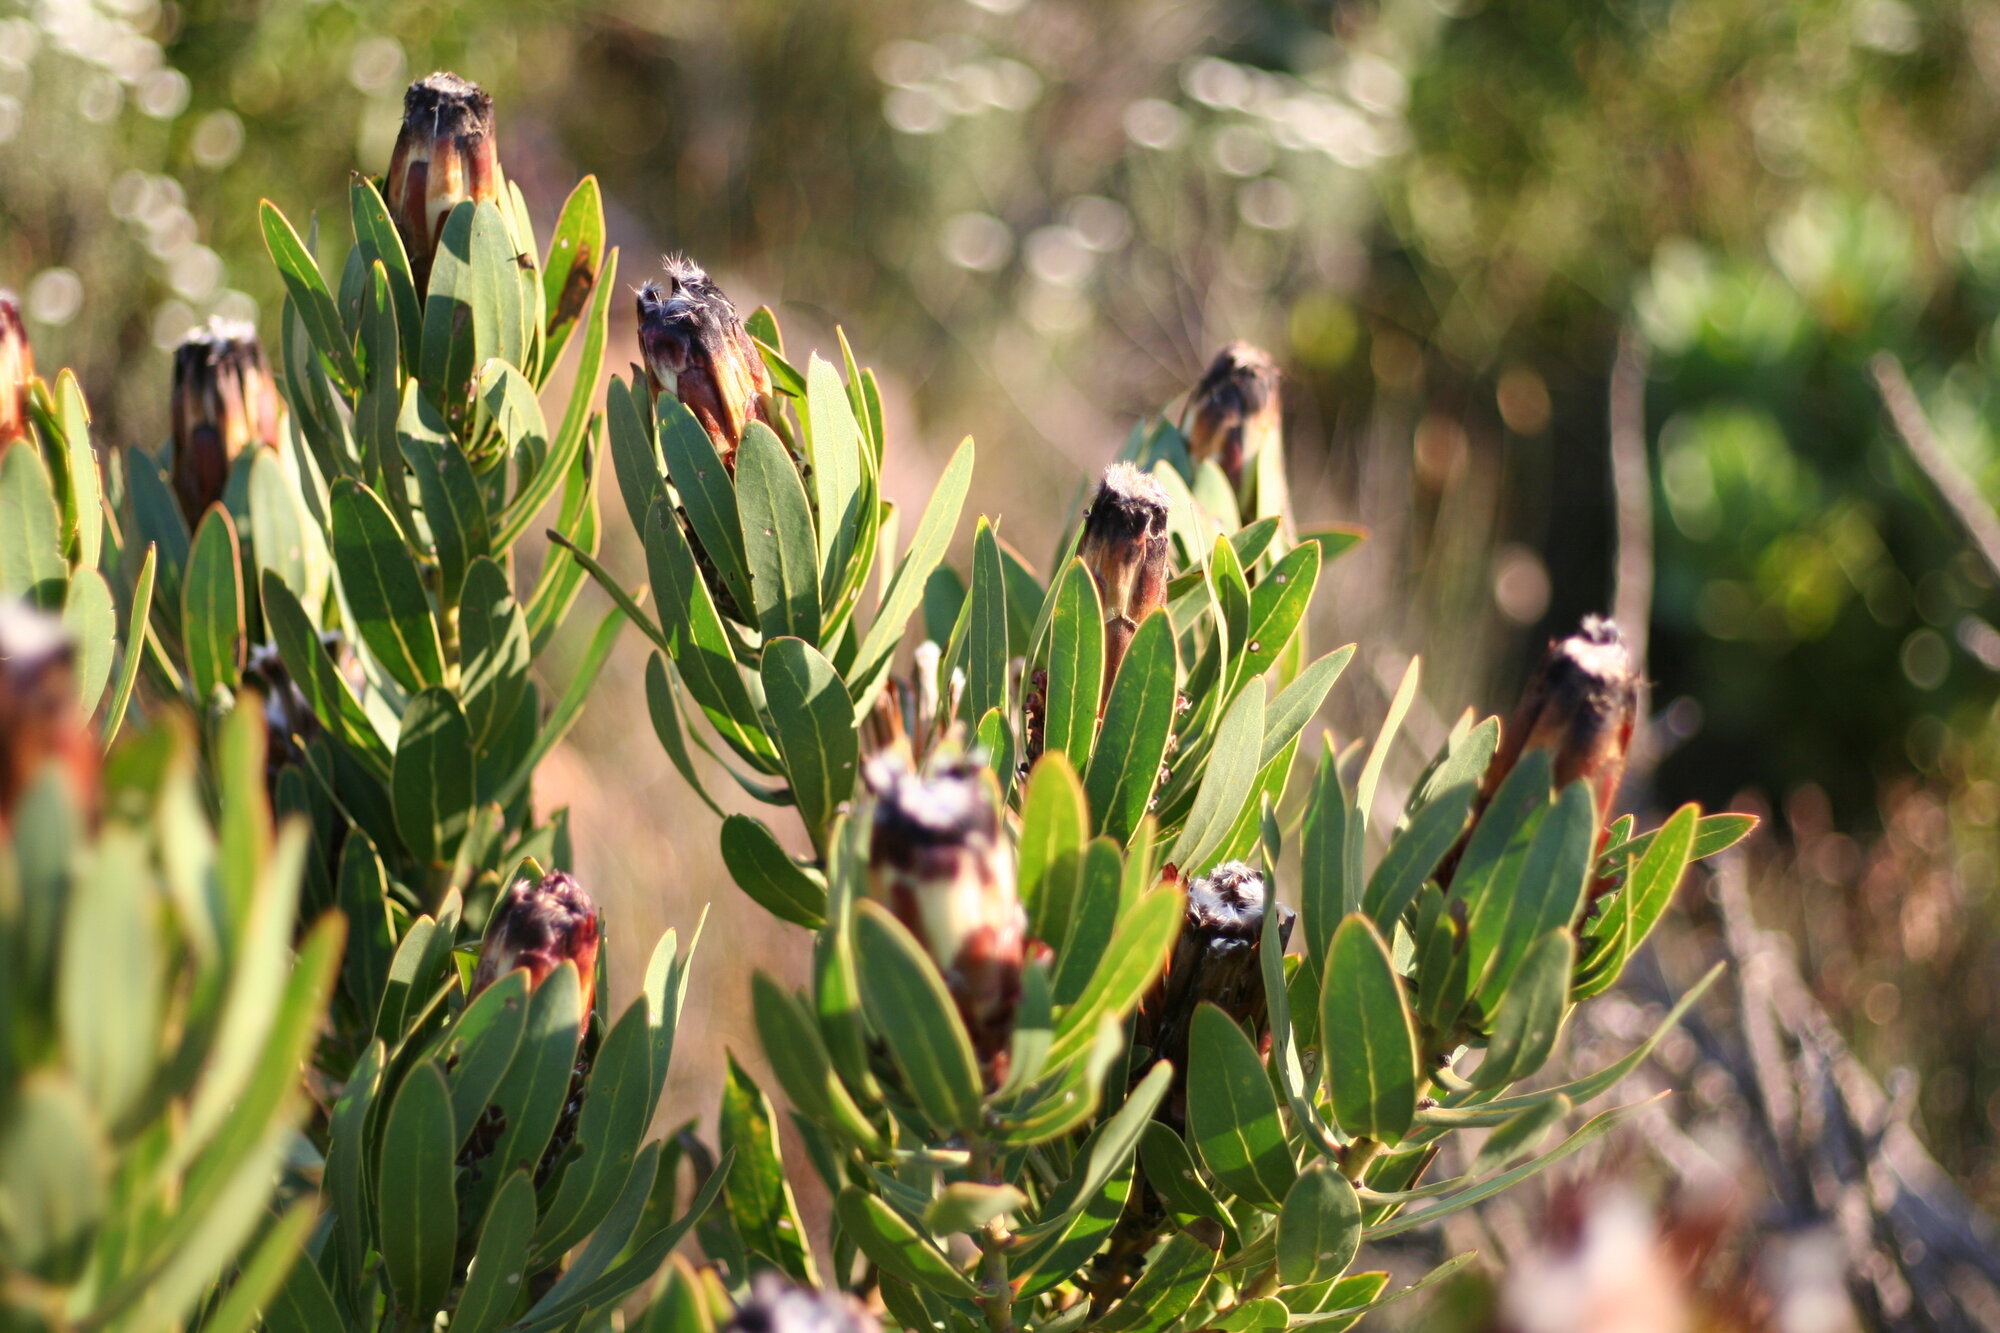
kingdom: Plantae
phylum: Tracheophyta
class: Magnoliopsida
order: Proteales
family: Proteaceae
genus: Protea
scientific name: Protea lepidocarpodendron
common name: Black-bearded protea
